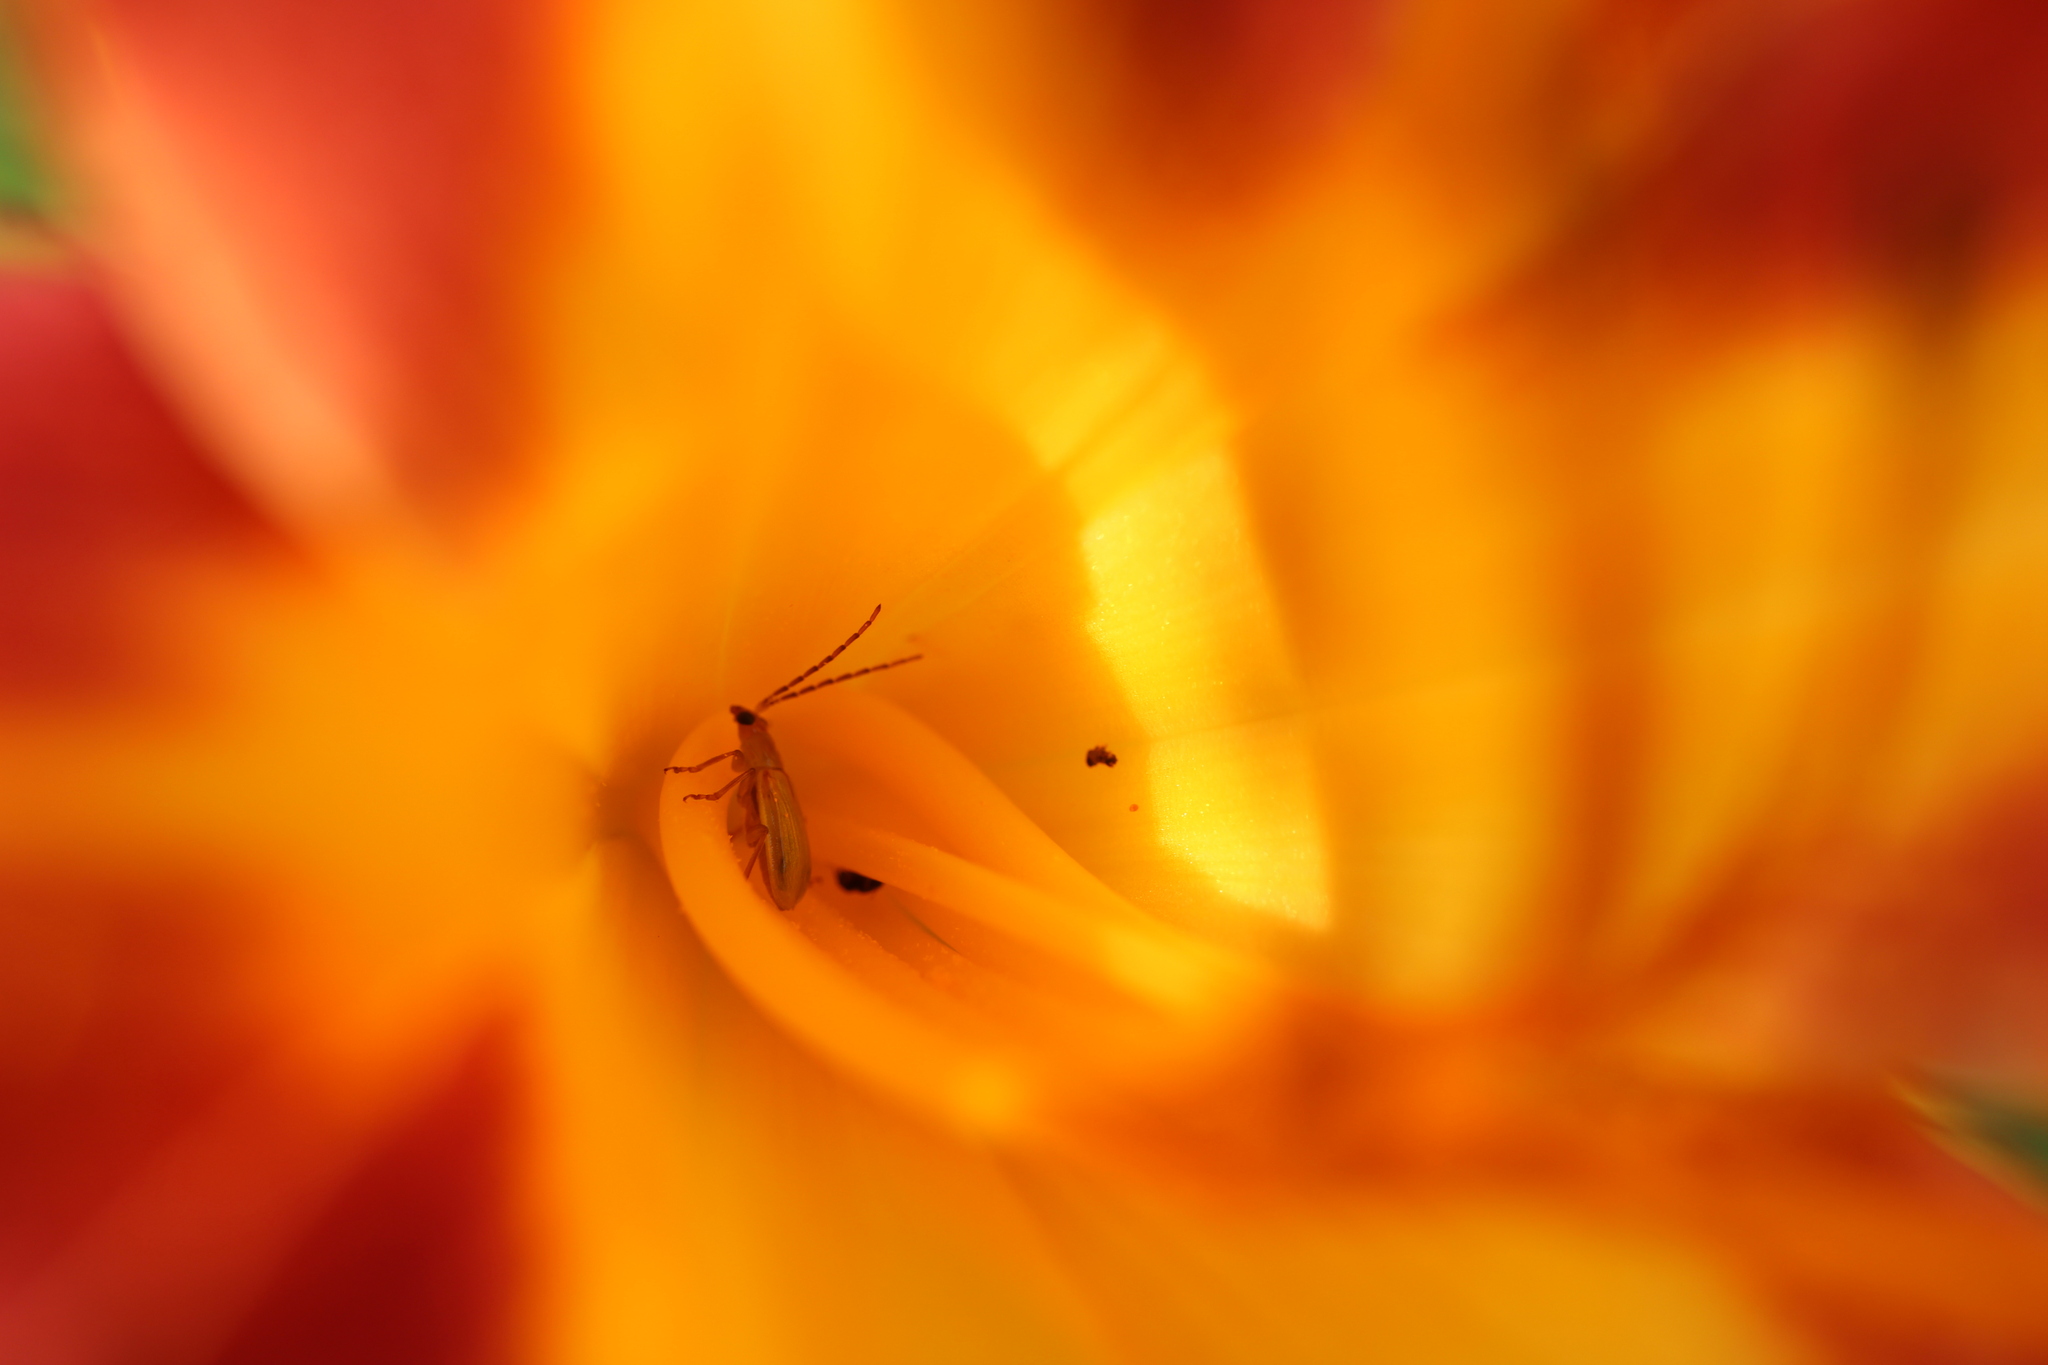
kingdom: Animalia
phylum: Arthropoda
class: Insecta
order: Coleoptera
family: Chrysomelidae
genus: Diabrotica
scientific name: Diabrotica barberi
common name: Northern corn rootworm
